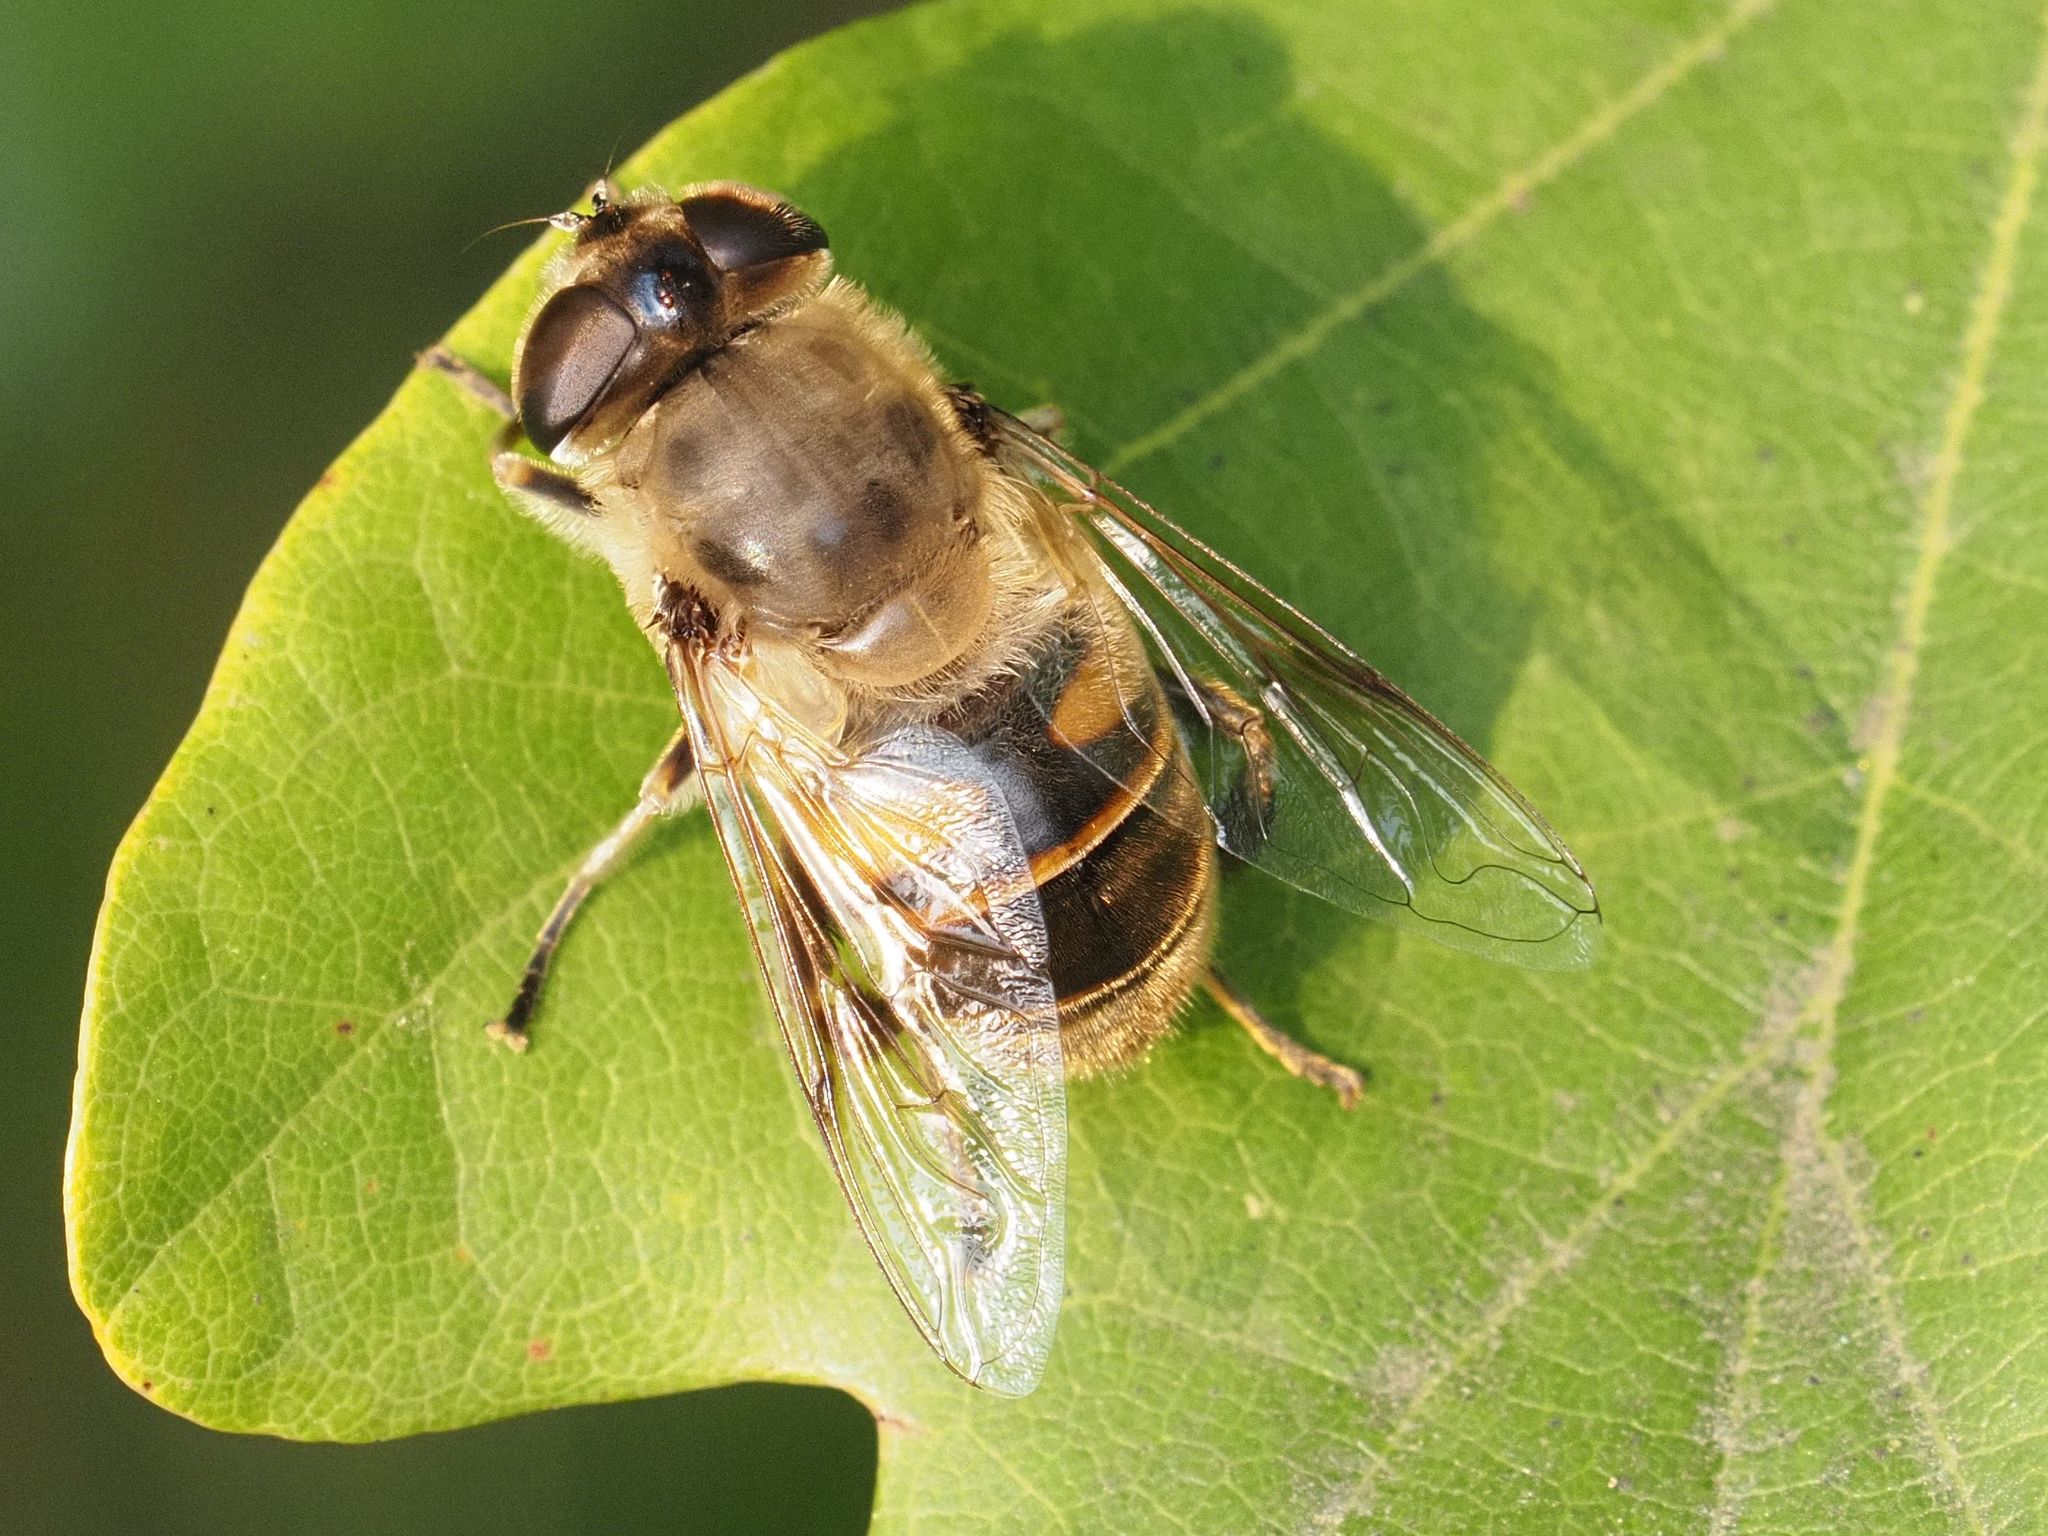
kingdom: Animalia
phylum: Arthropoda
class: Insecta
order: Diptera
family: Syrphidae
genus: Eristalis
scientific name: Eristalis tenax
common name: Drone fly
